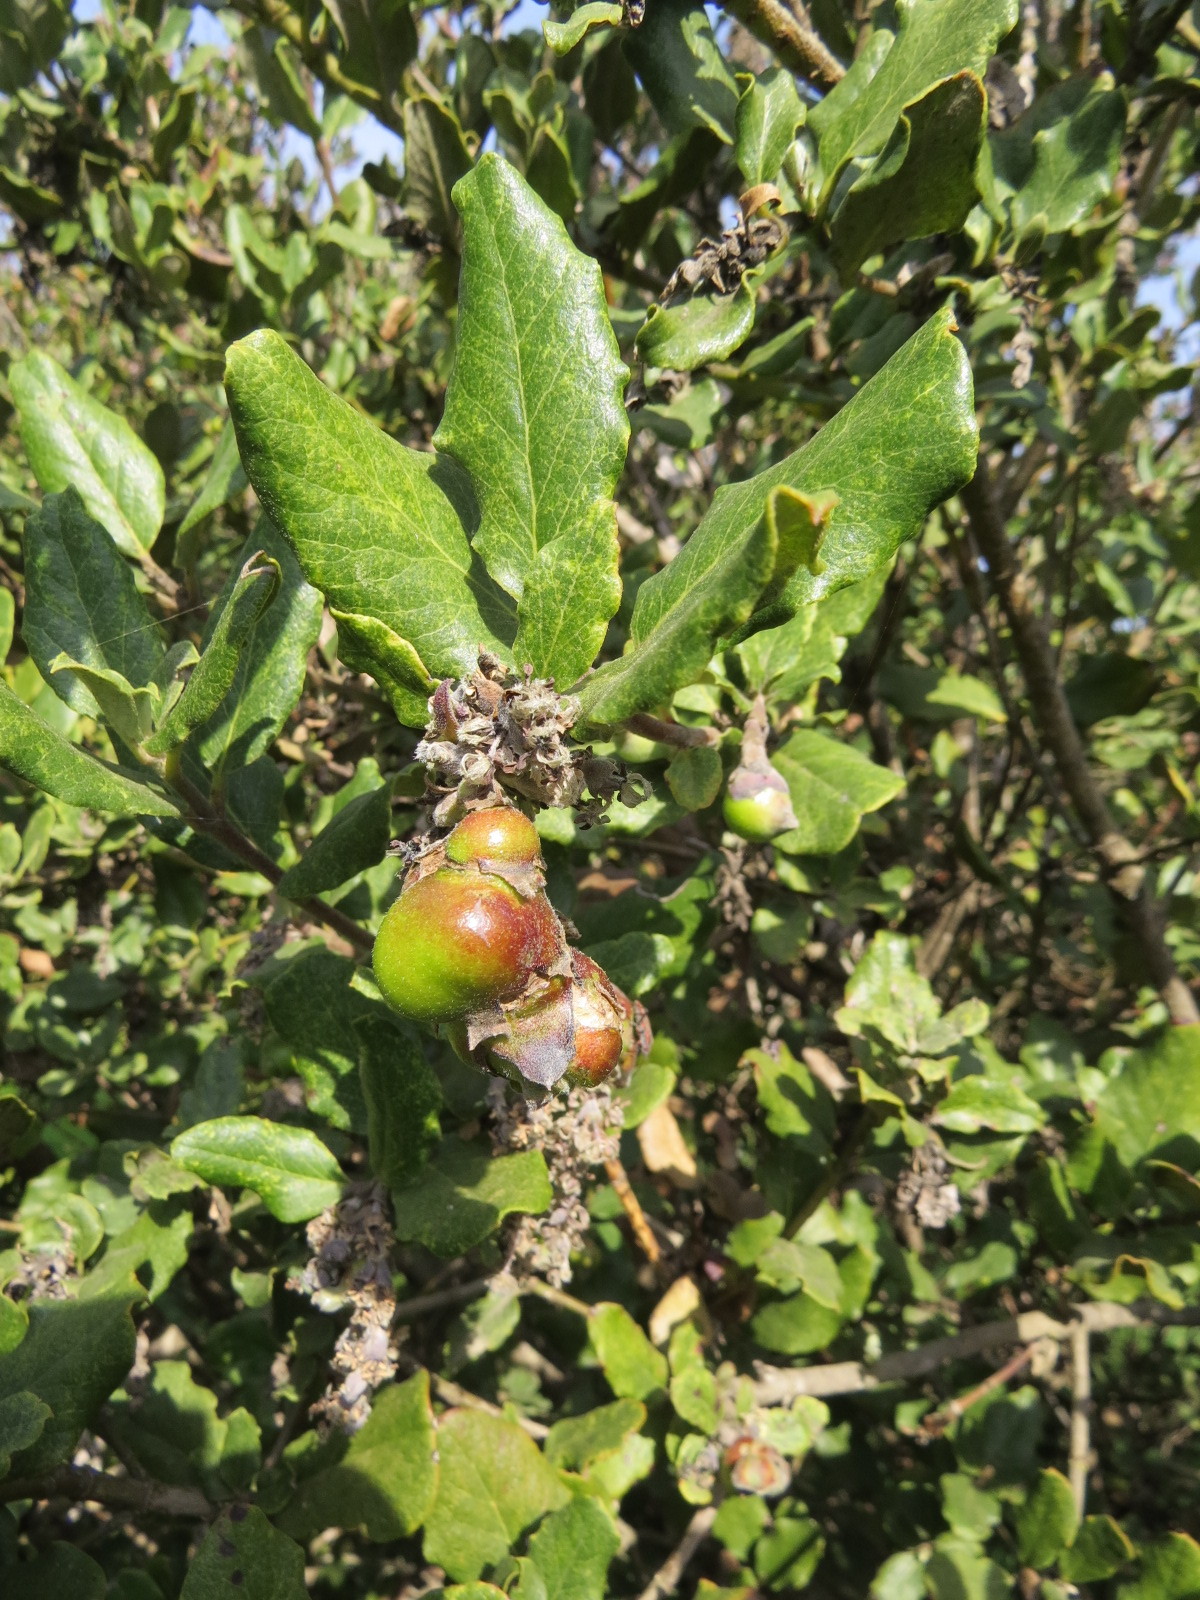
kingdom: Animalia
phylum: Arthropoda
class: Insecta
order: Diptera
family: Cecidomyiidae
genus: Asphondylia
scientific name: Asphondylia garryae
